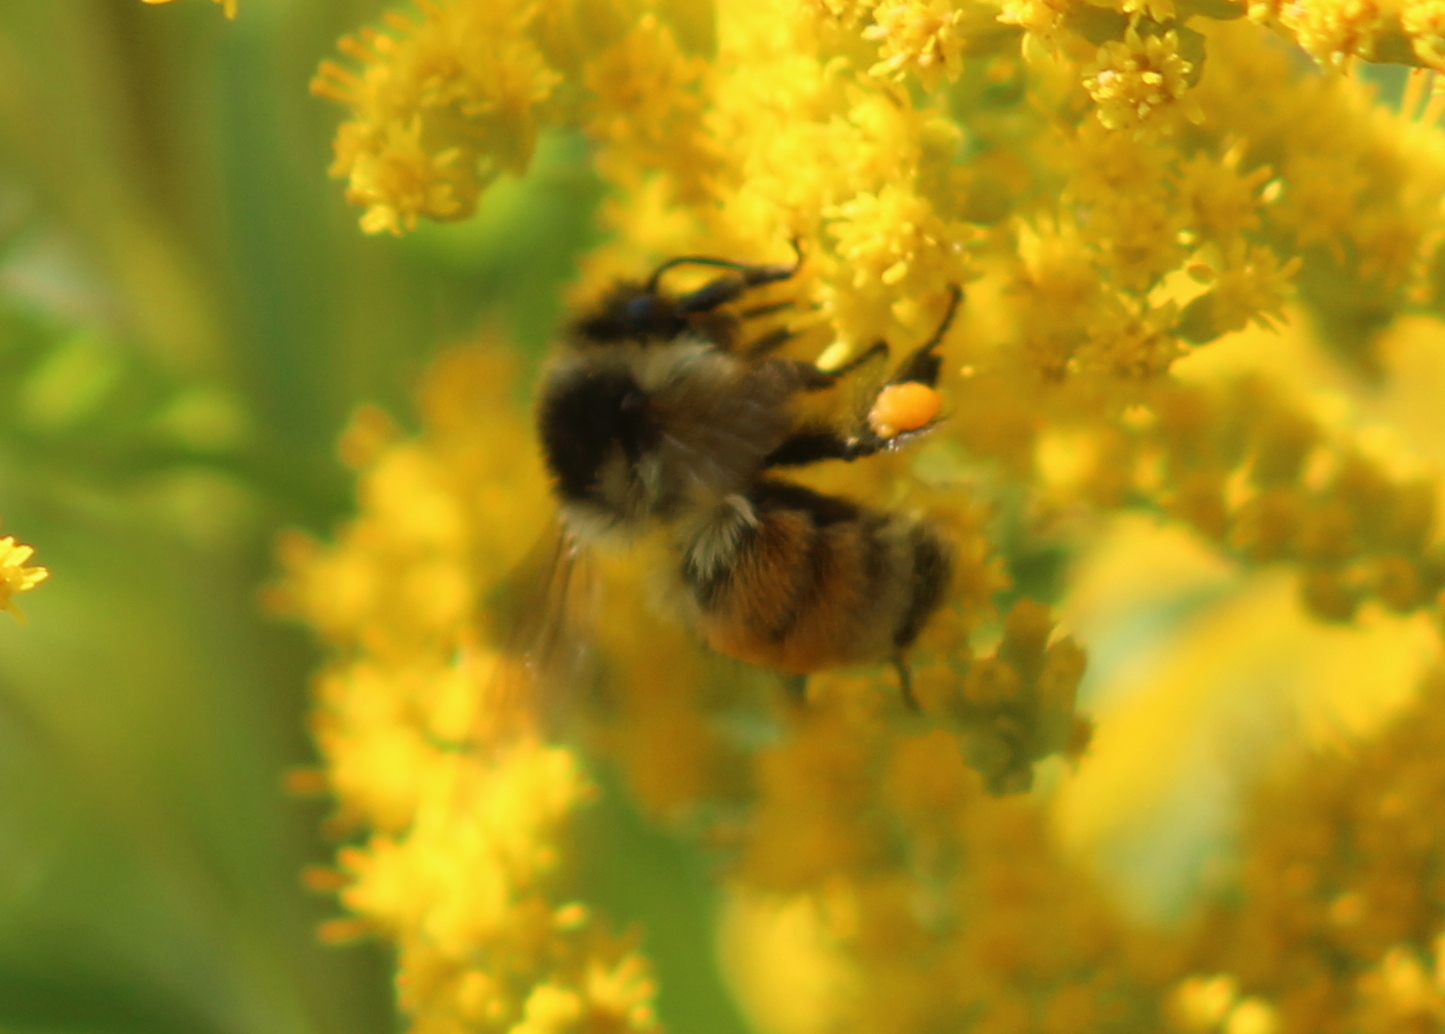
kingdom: Animalia
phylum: Arthropoda
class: Insecta
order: Hymenoptera
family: Apidae
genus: Bombus
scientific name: Bombus ternarius
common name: Tri-colored bumble bee
